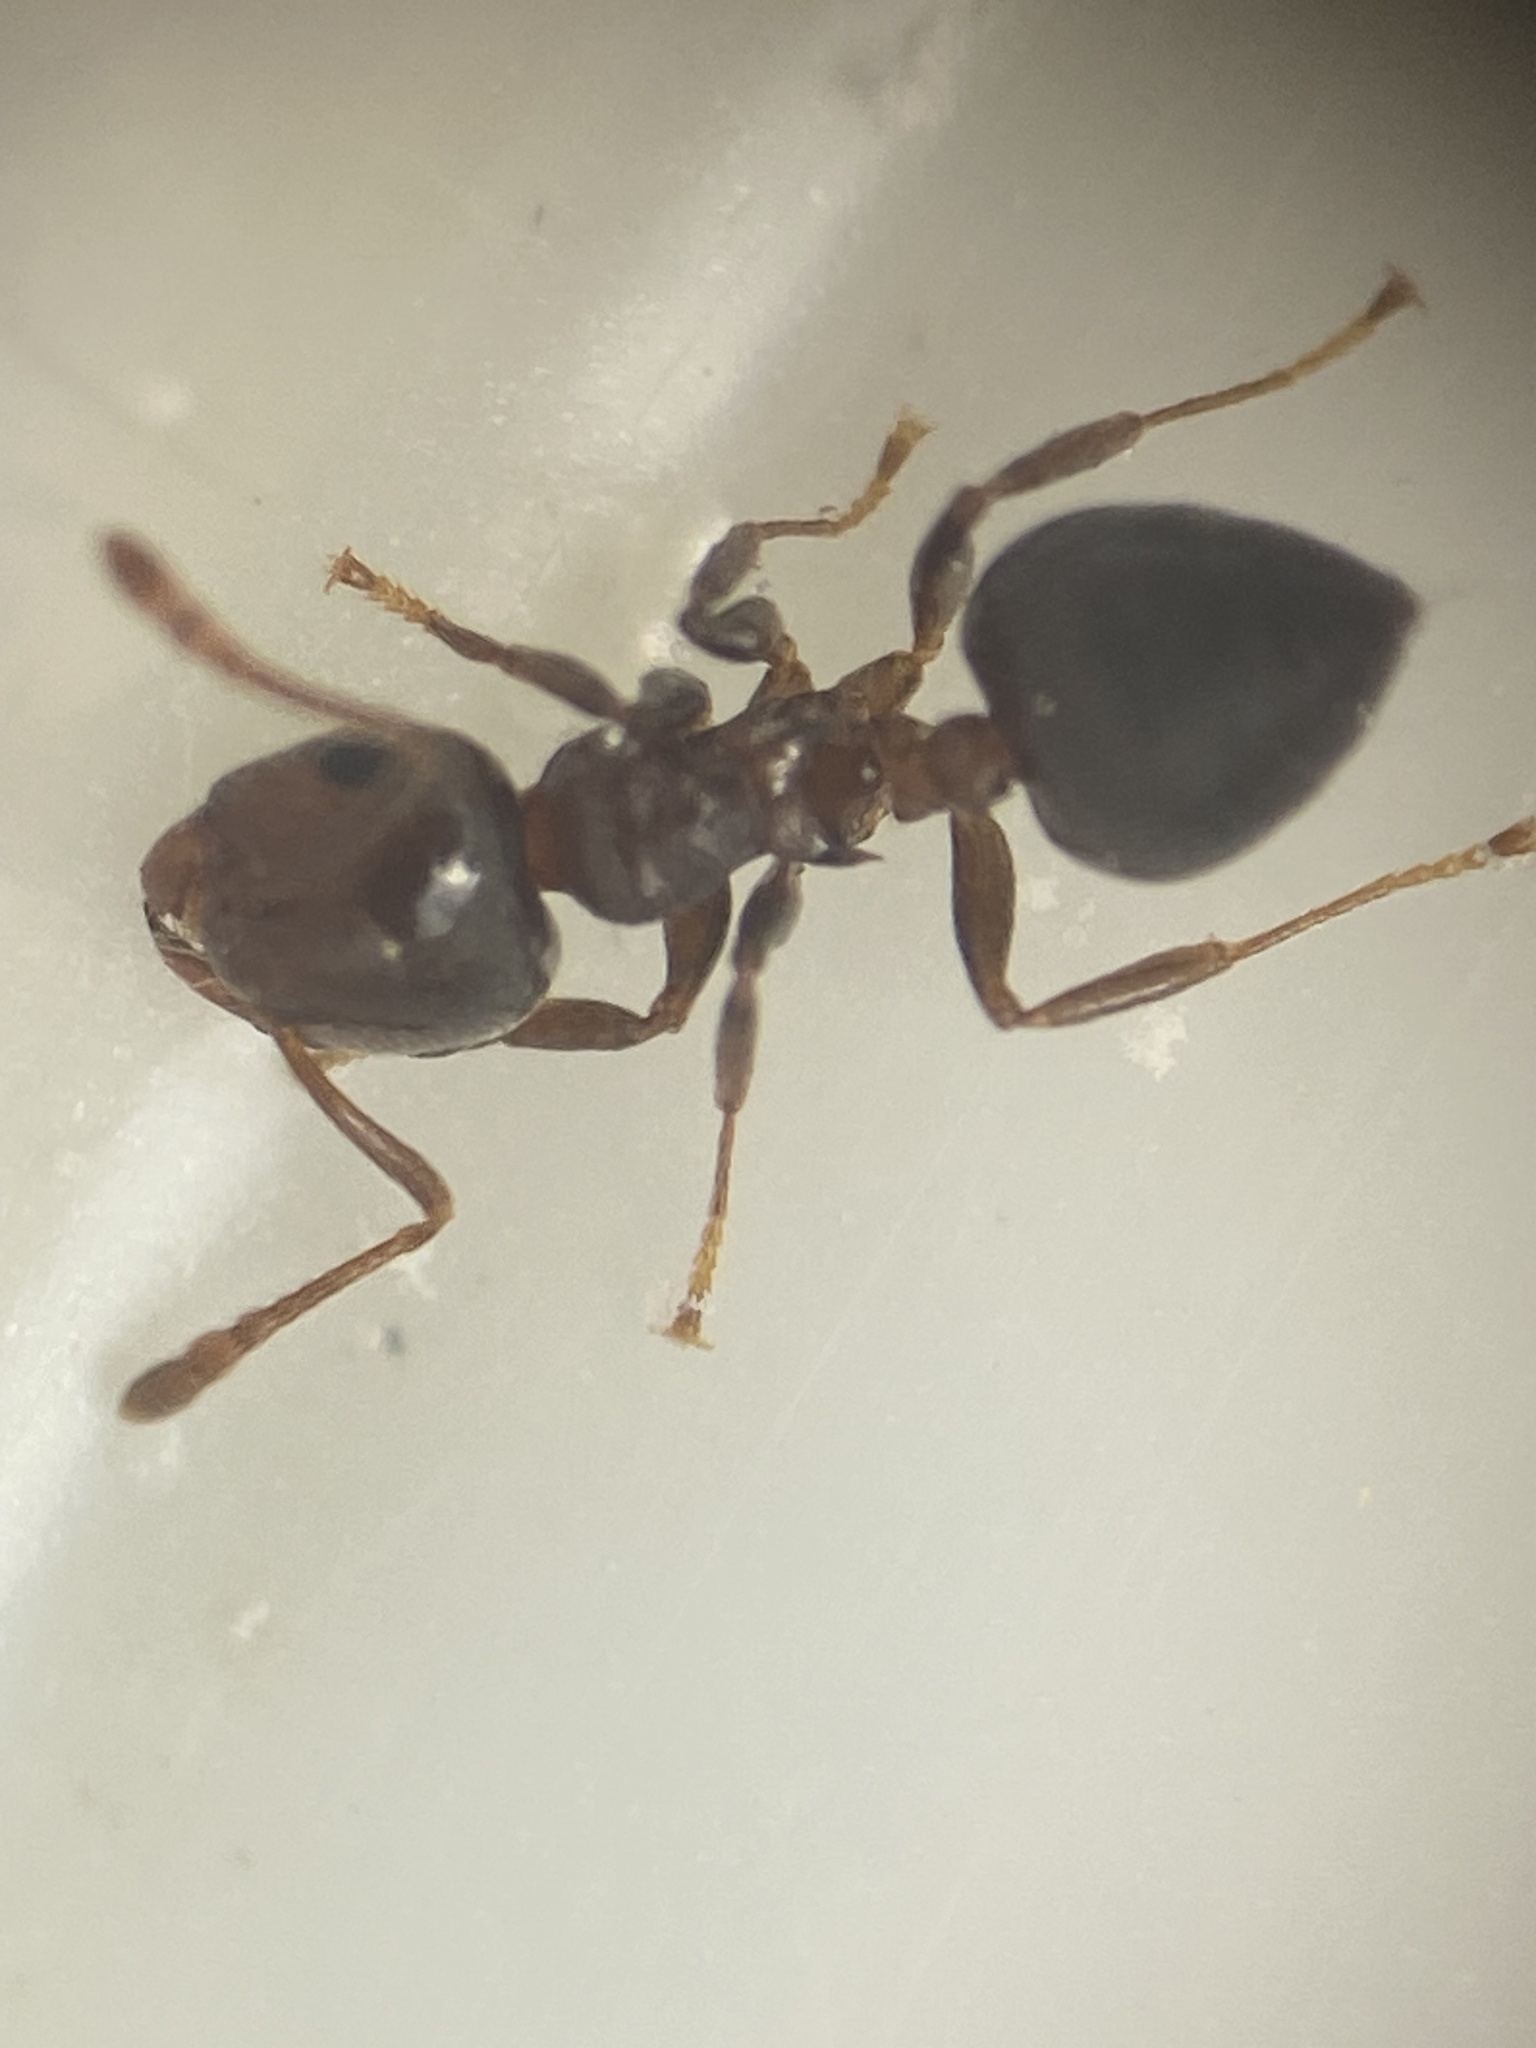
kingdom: Animalia
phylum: Arthropoda
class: Insecta
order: Hymenoptera
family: Formicidae
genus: Crematogaster
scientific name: Crematogaster ashmeadi
